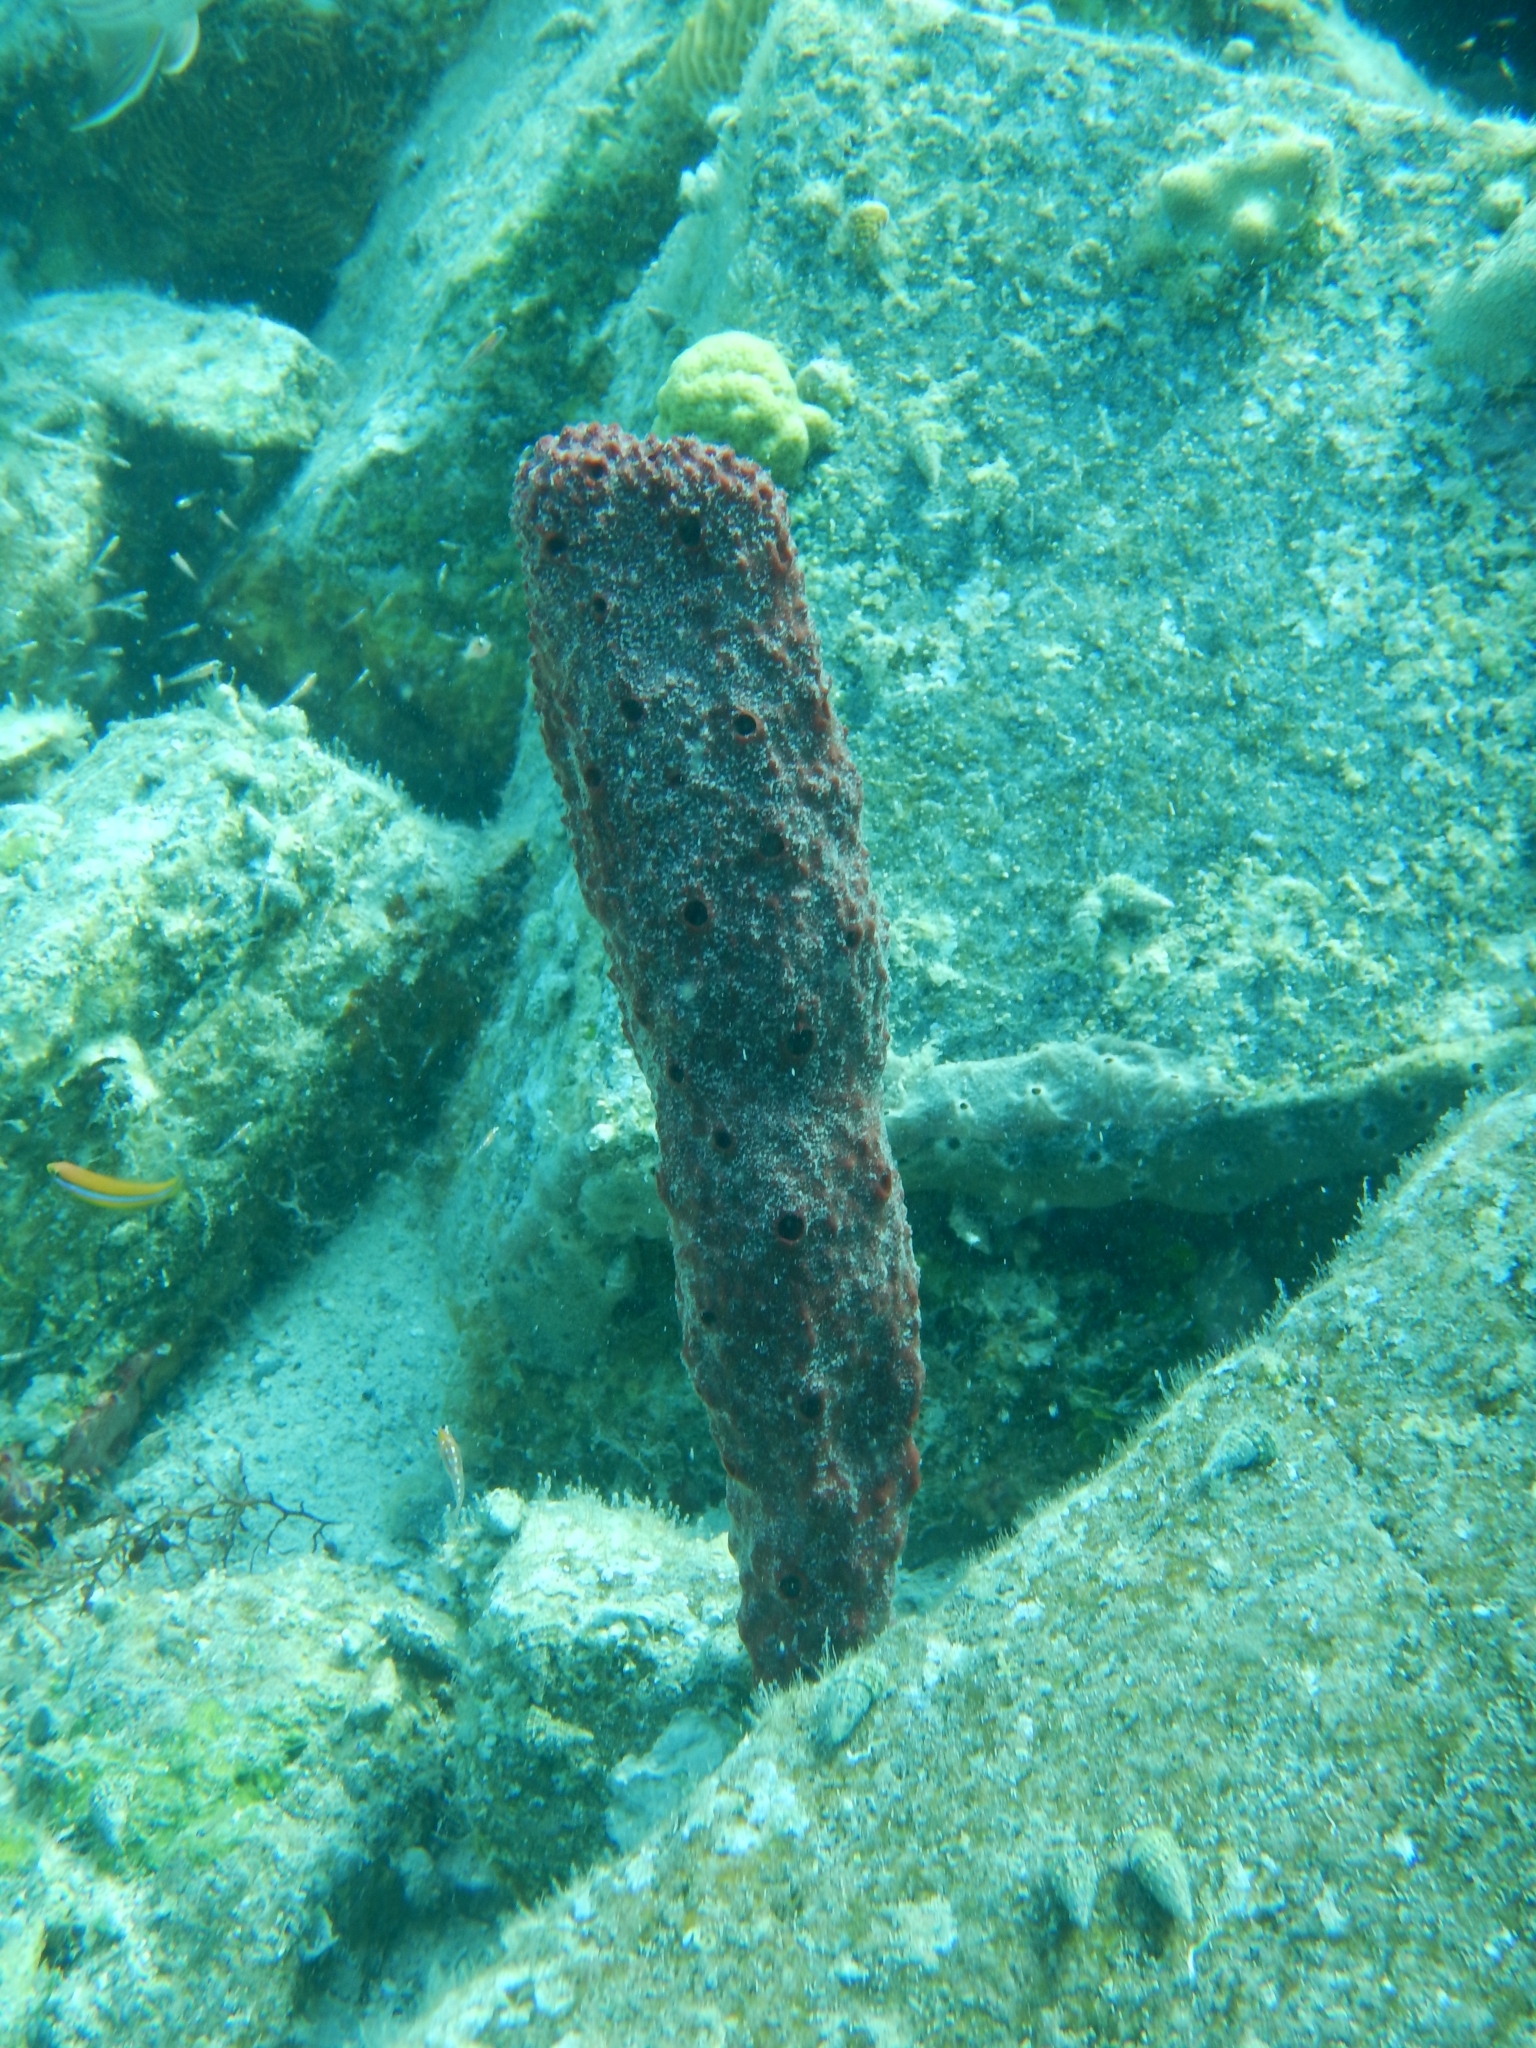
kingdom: Animalia
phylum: Porifera
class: Demospongiae
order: Haplosclerida
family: Niphatidae
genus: Amphimedon
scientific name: Amphimedon compressa
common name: Red sponge
